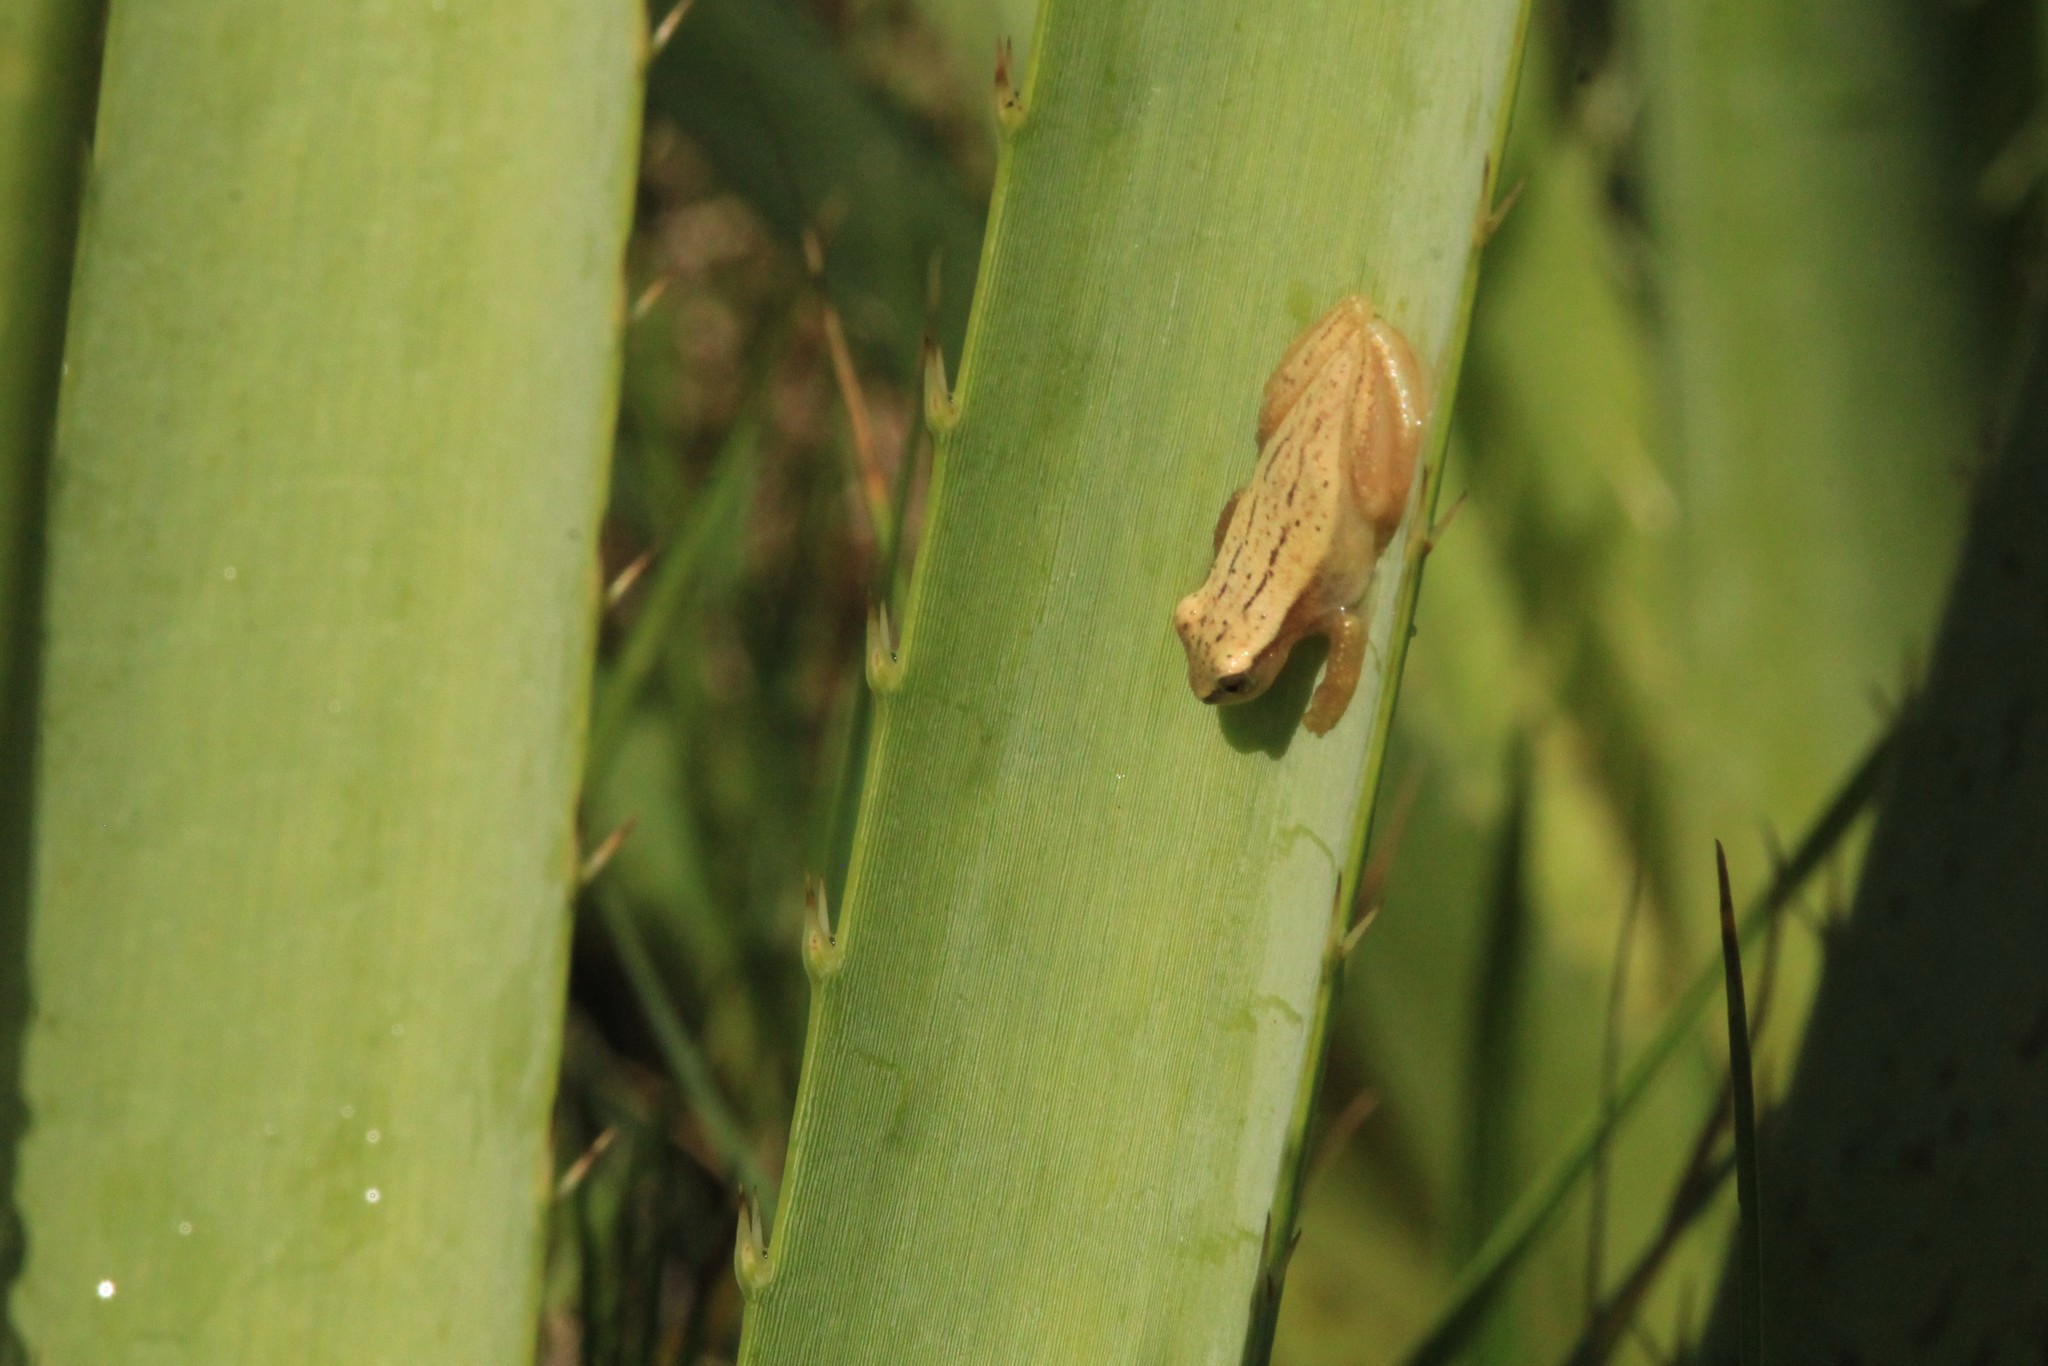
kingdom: Animalia
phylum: Chordata
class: Amphibia
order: Anura
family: Hylidae
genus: Dendropsophus
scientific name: Dendropsophus sanborni
